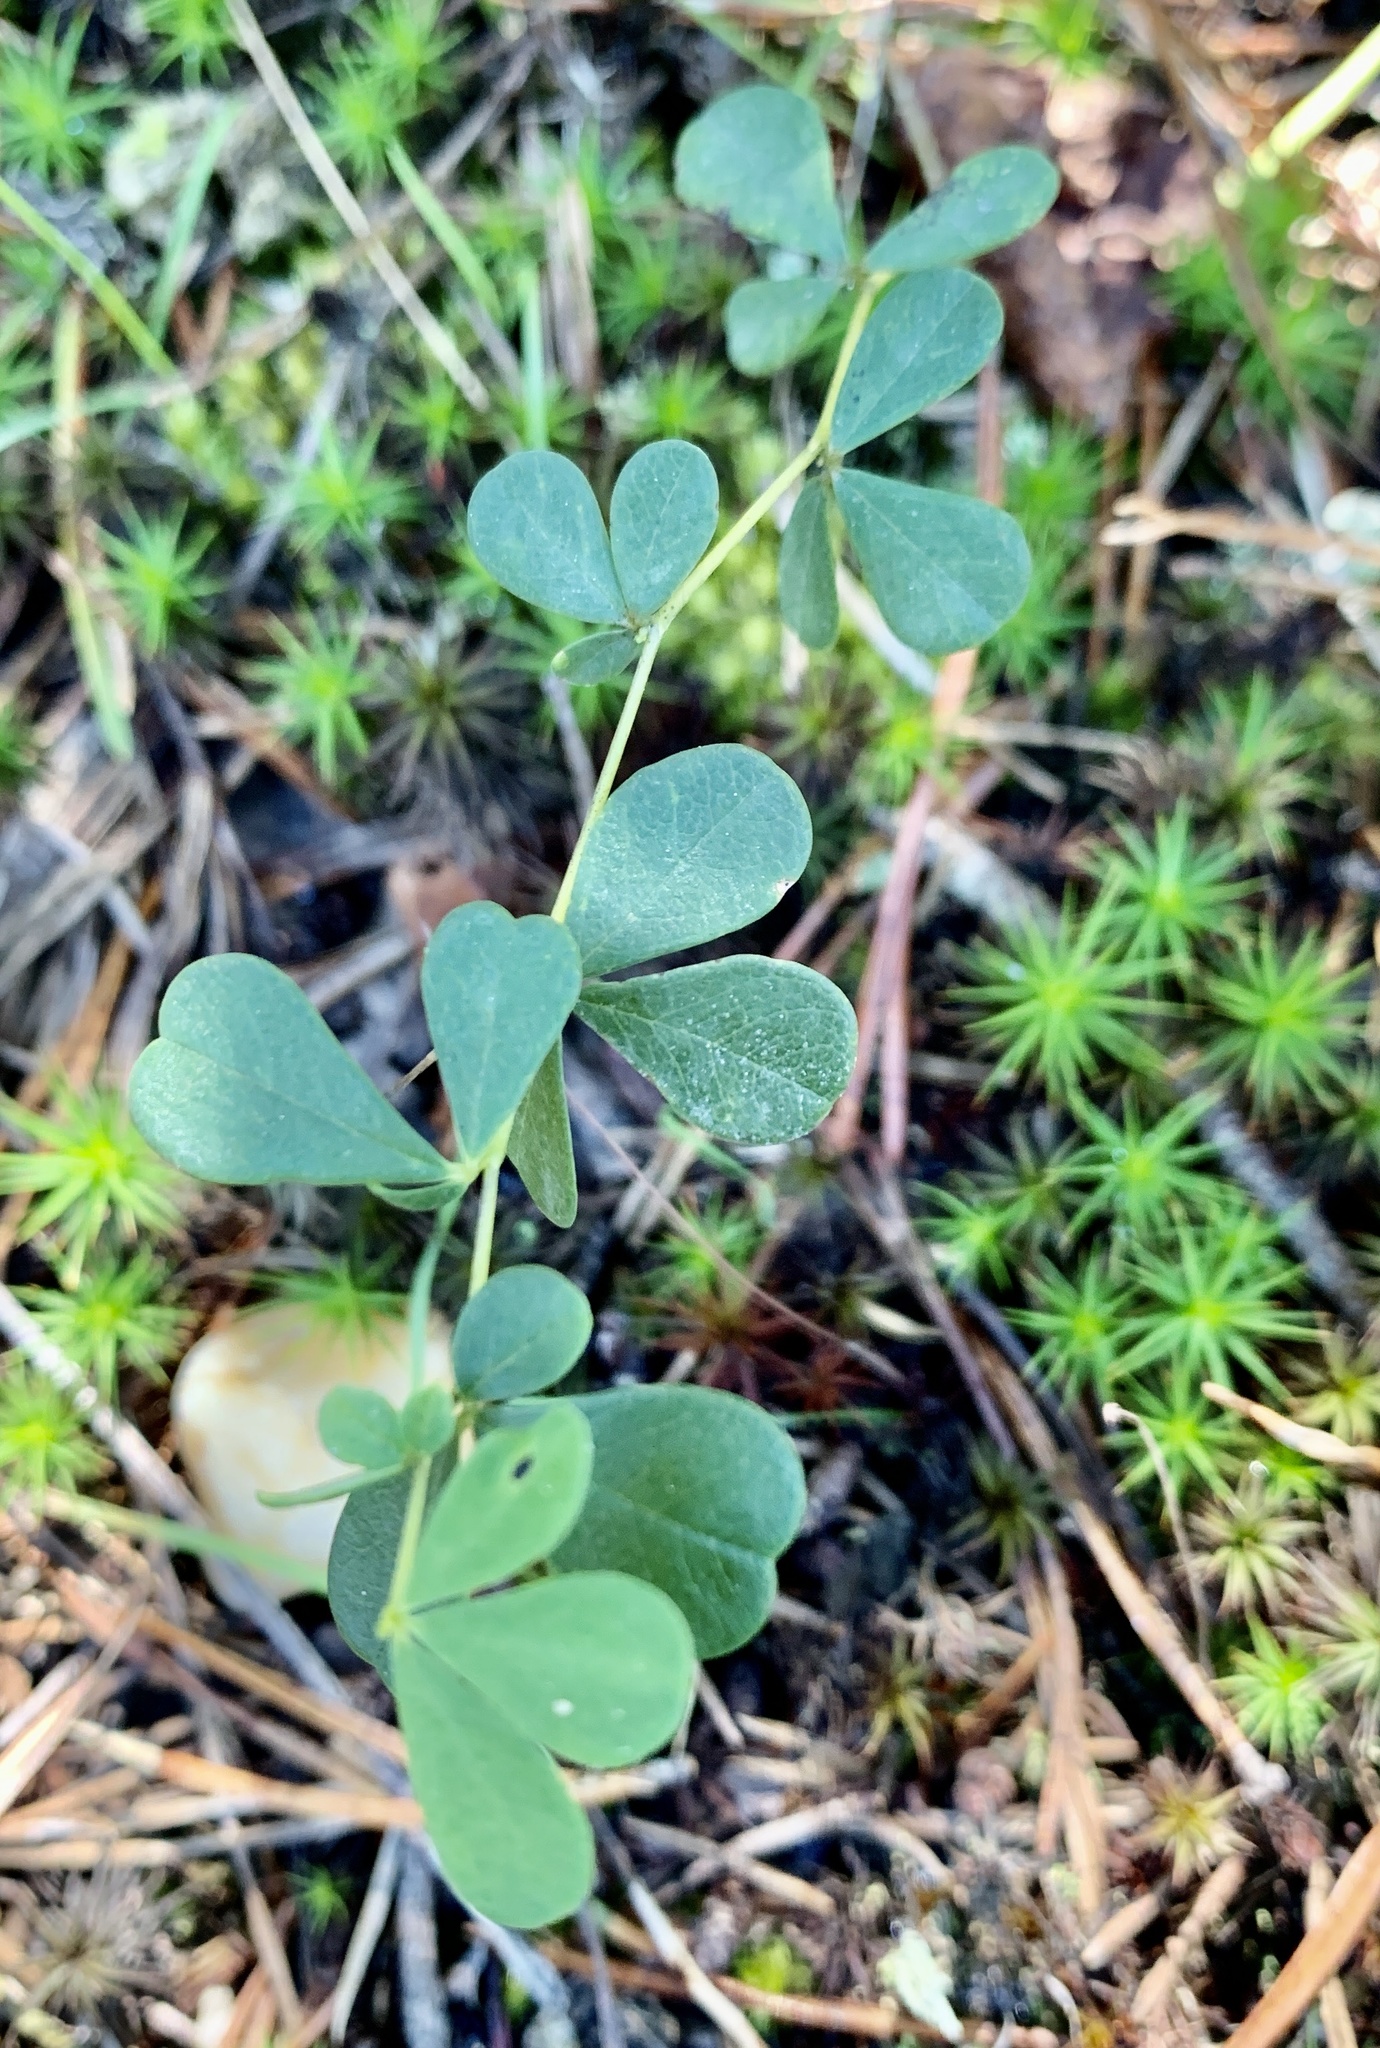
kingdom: Plantae
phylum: Tracheophyta
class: Magnoliopsida
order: Fabales
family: Fabaceae
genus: Baptisia
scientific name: Baptisia tinctoria
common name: Wild indigo
